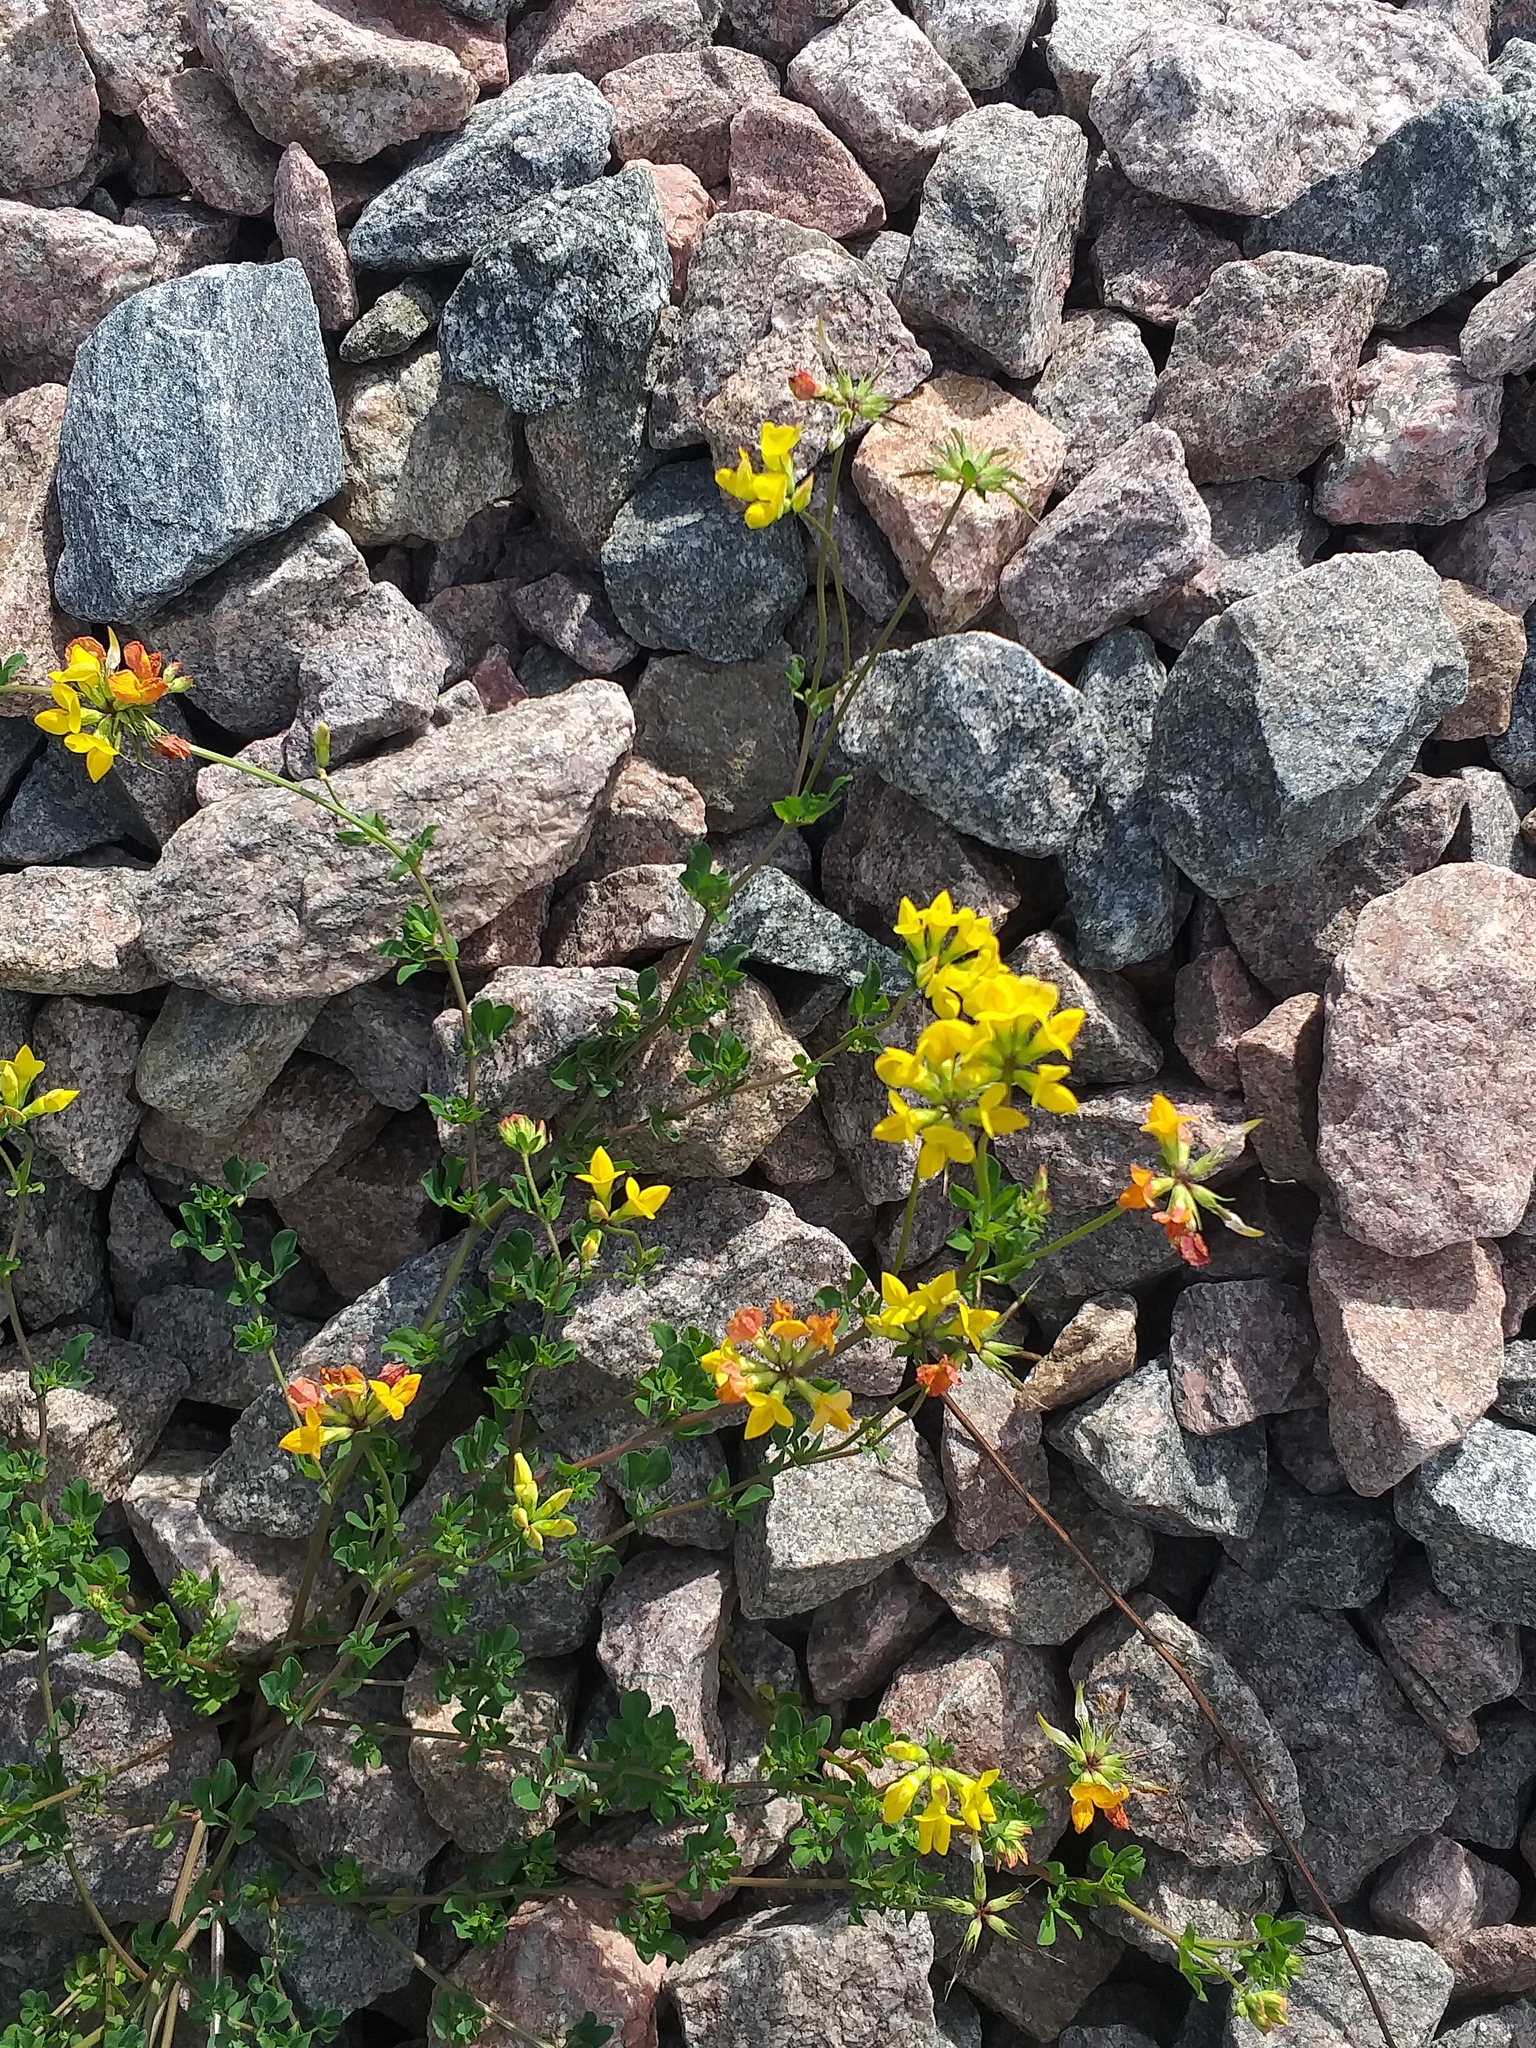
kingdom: Plantae
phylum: Tracheophyta
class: Magnoliopsida
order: Fabales
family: Fabaceae
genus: Lotus
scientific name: Lotus corniculatus
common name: Common bird's-foot-trefoil
